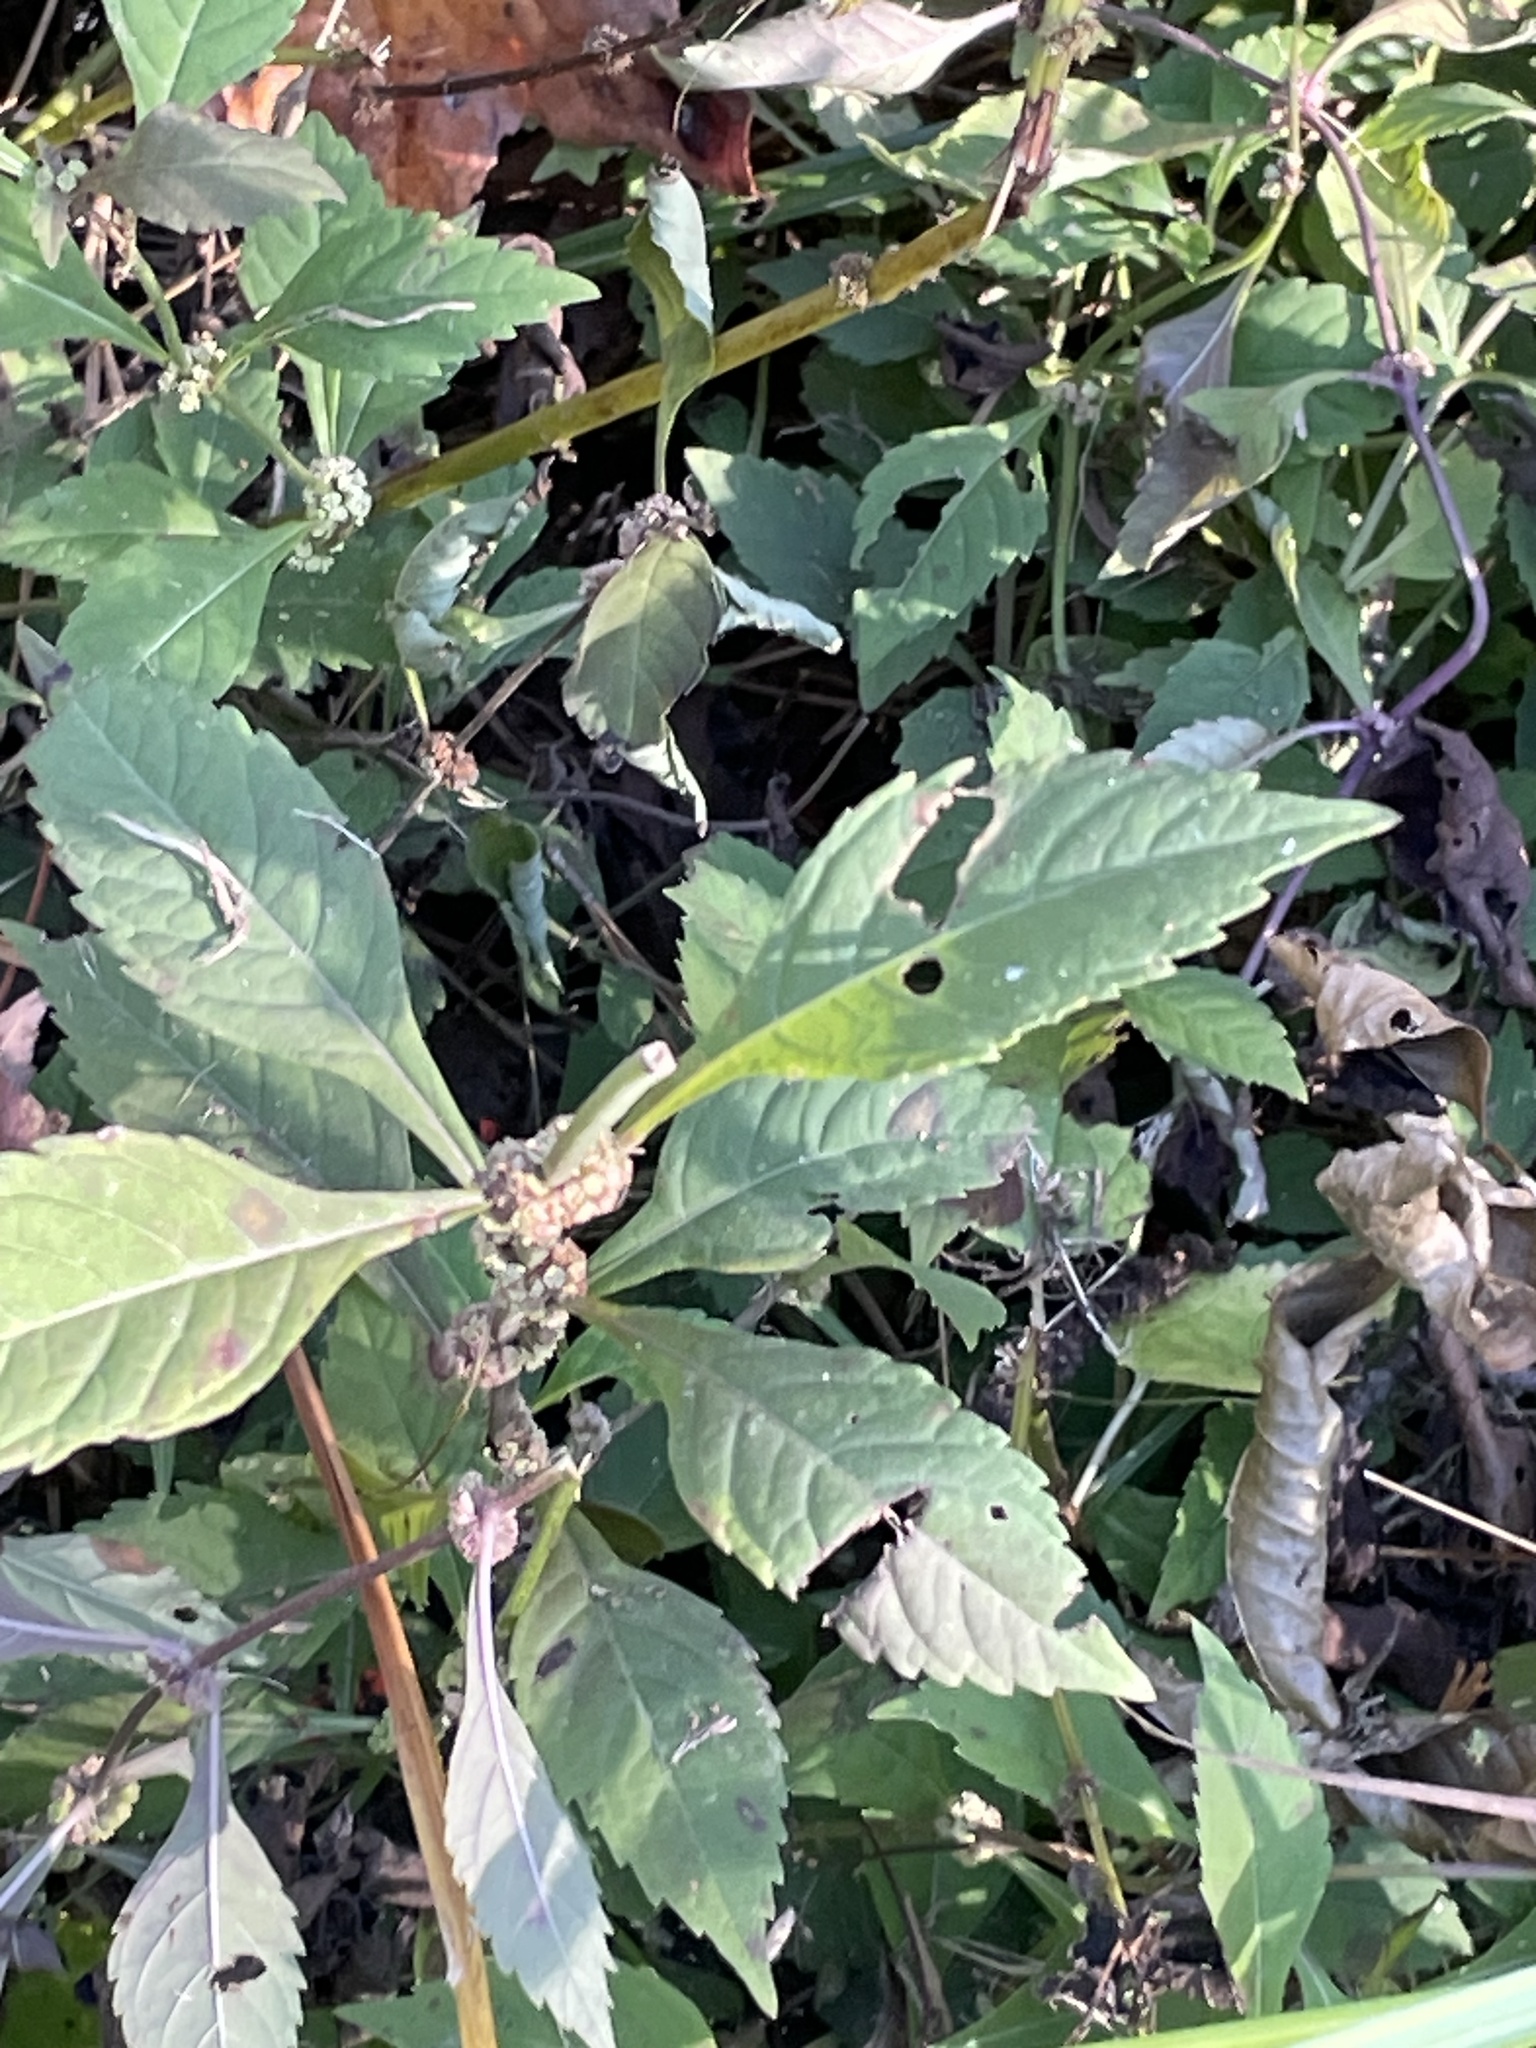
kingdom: Plantae
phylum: Tracheophyta
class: Magnoliopsida
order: Lamiales
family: Lamiaceae
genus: Lycopus
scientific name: Lycopus virginicus
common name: Bugleweed
